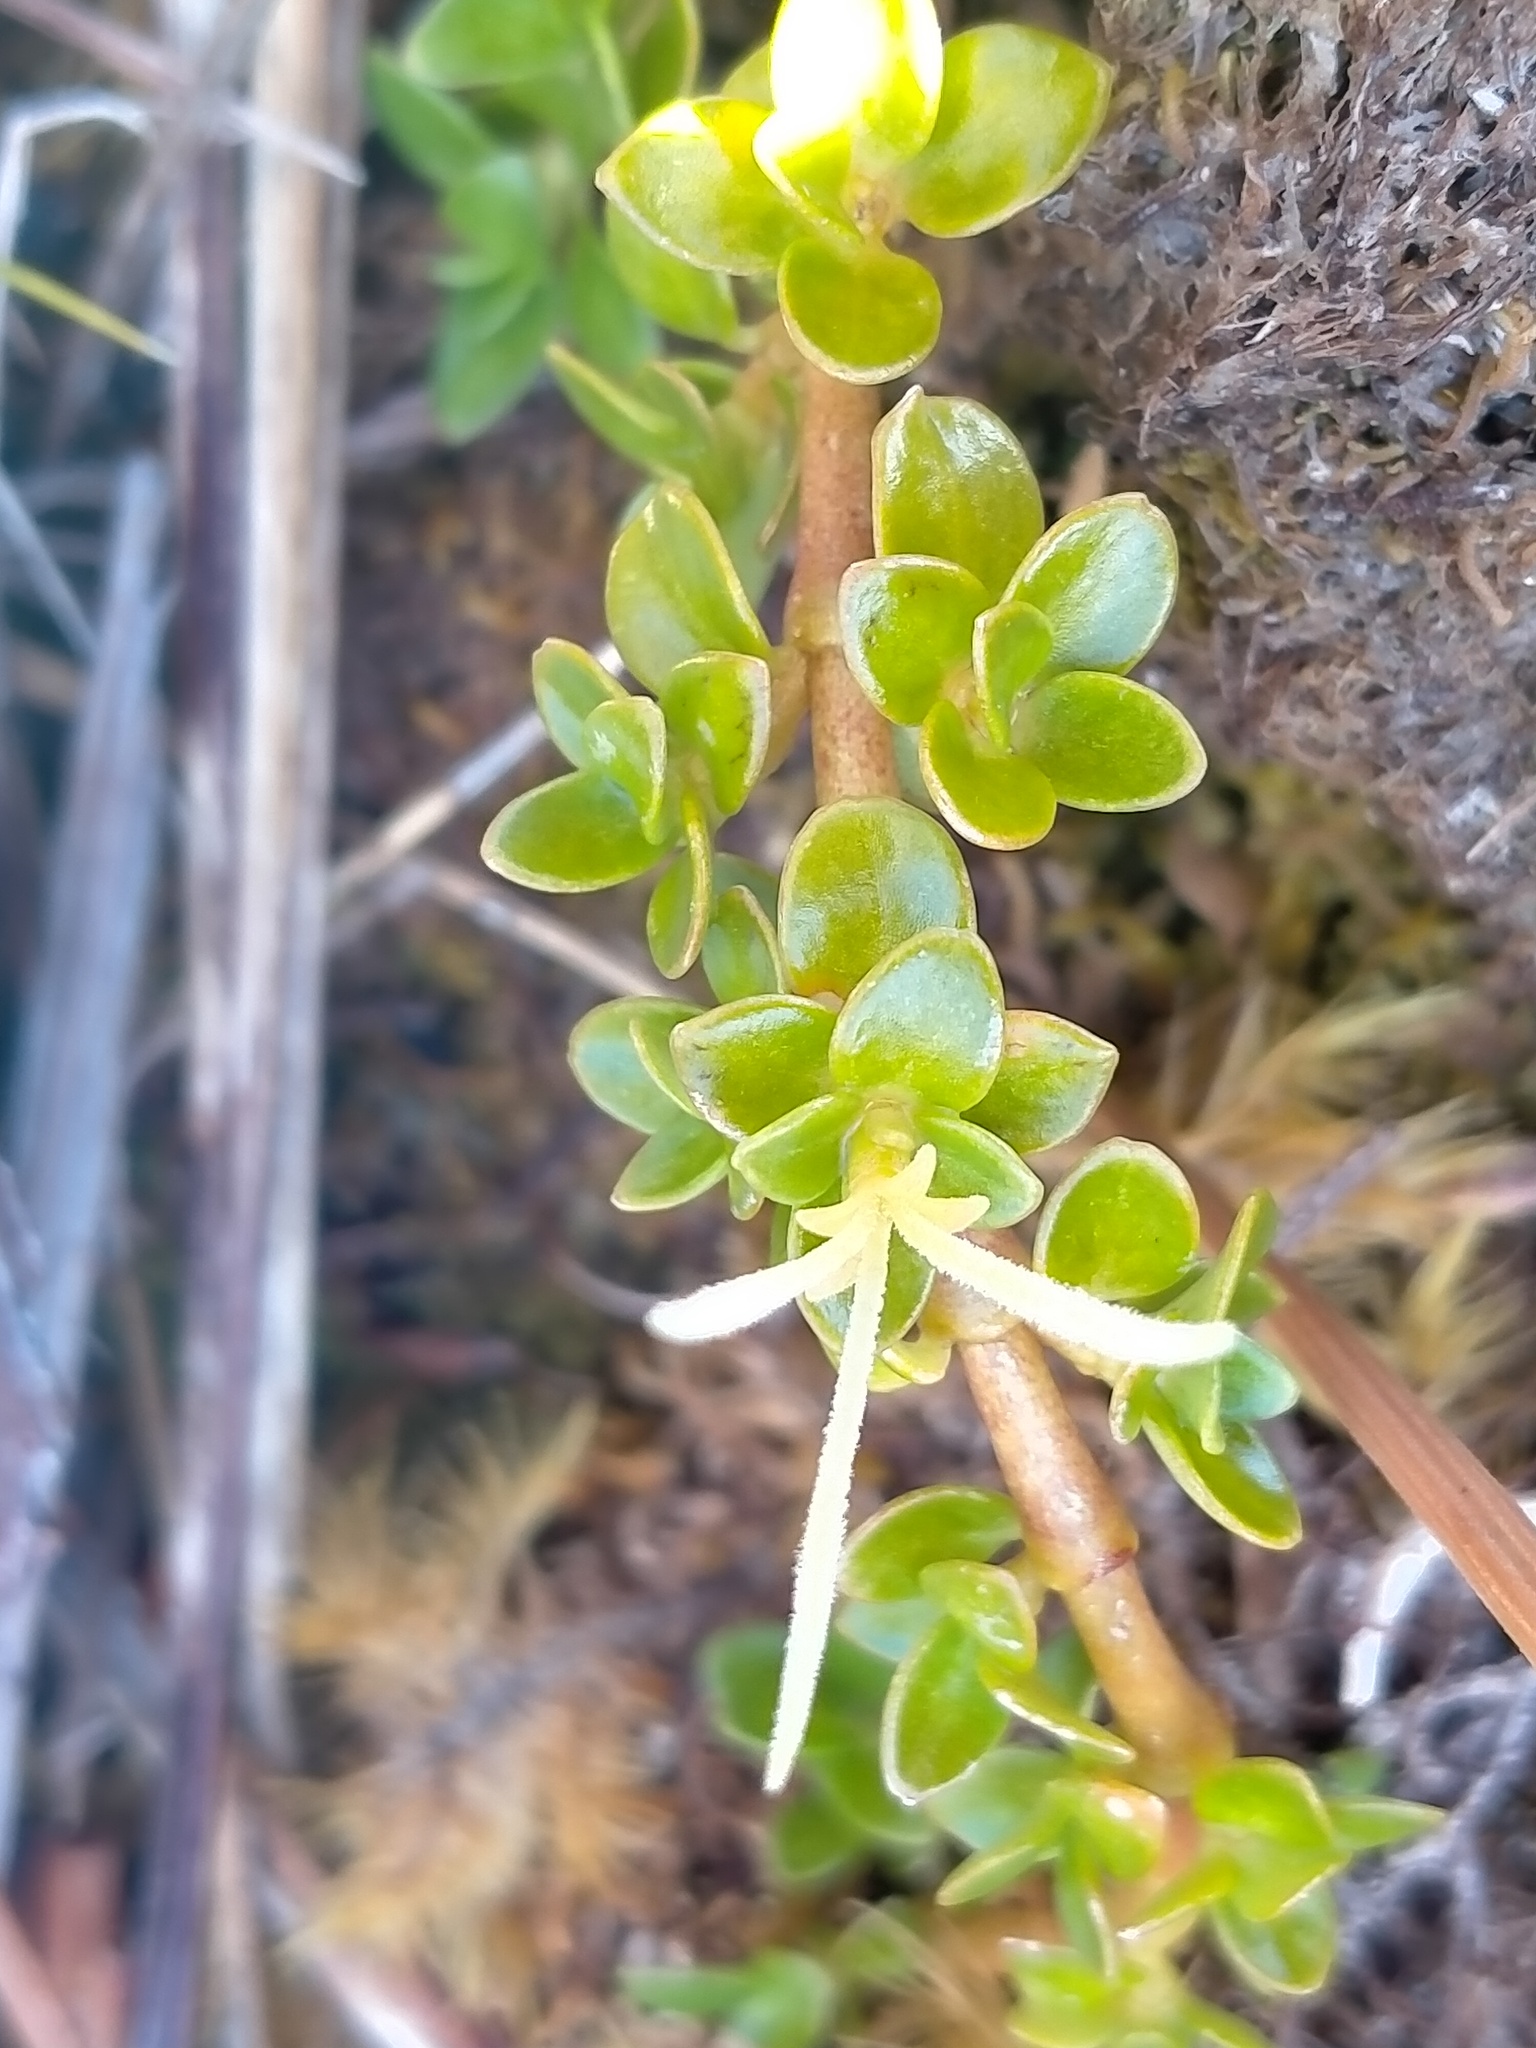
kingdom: Plantae
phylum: Tracheophyta
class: Magnoliopsida
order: Gentianales
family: Rubiaceae
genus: Coprosma
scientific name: Coprosma perpusilla
